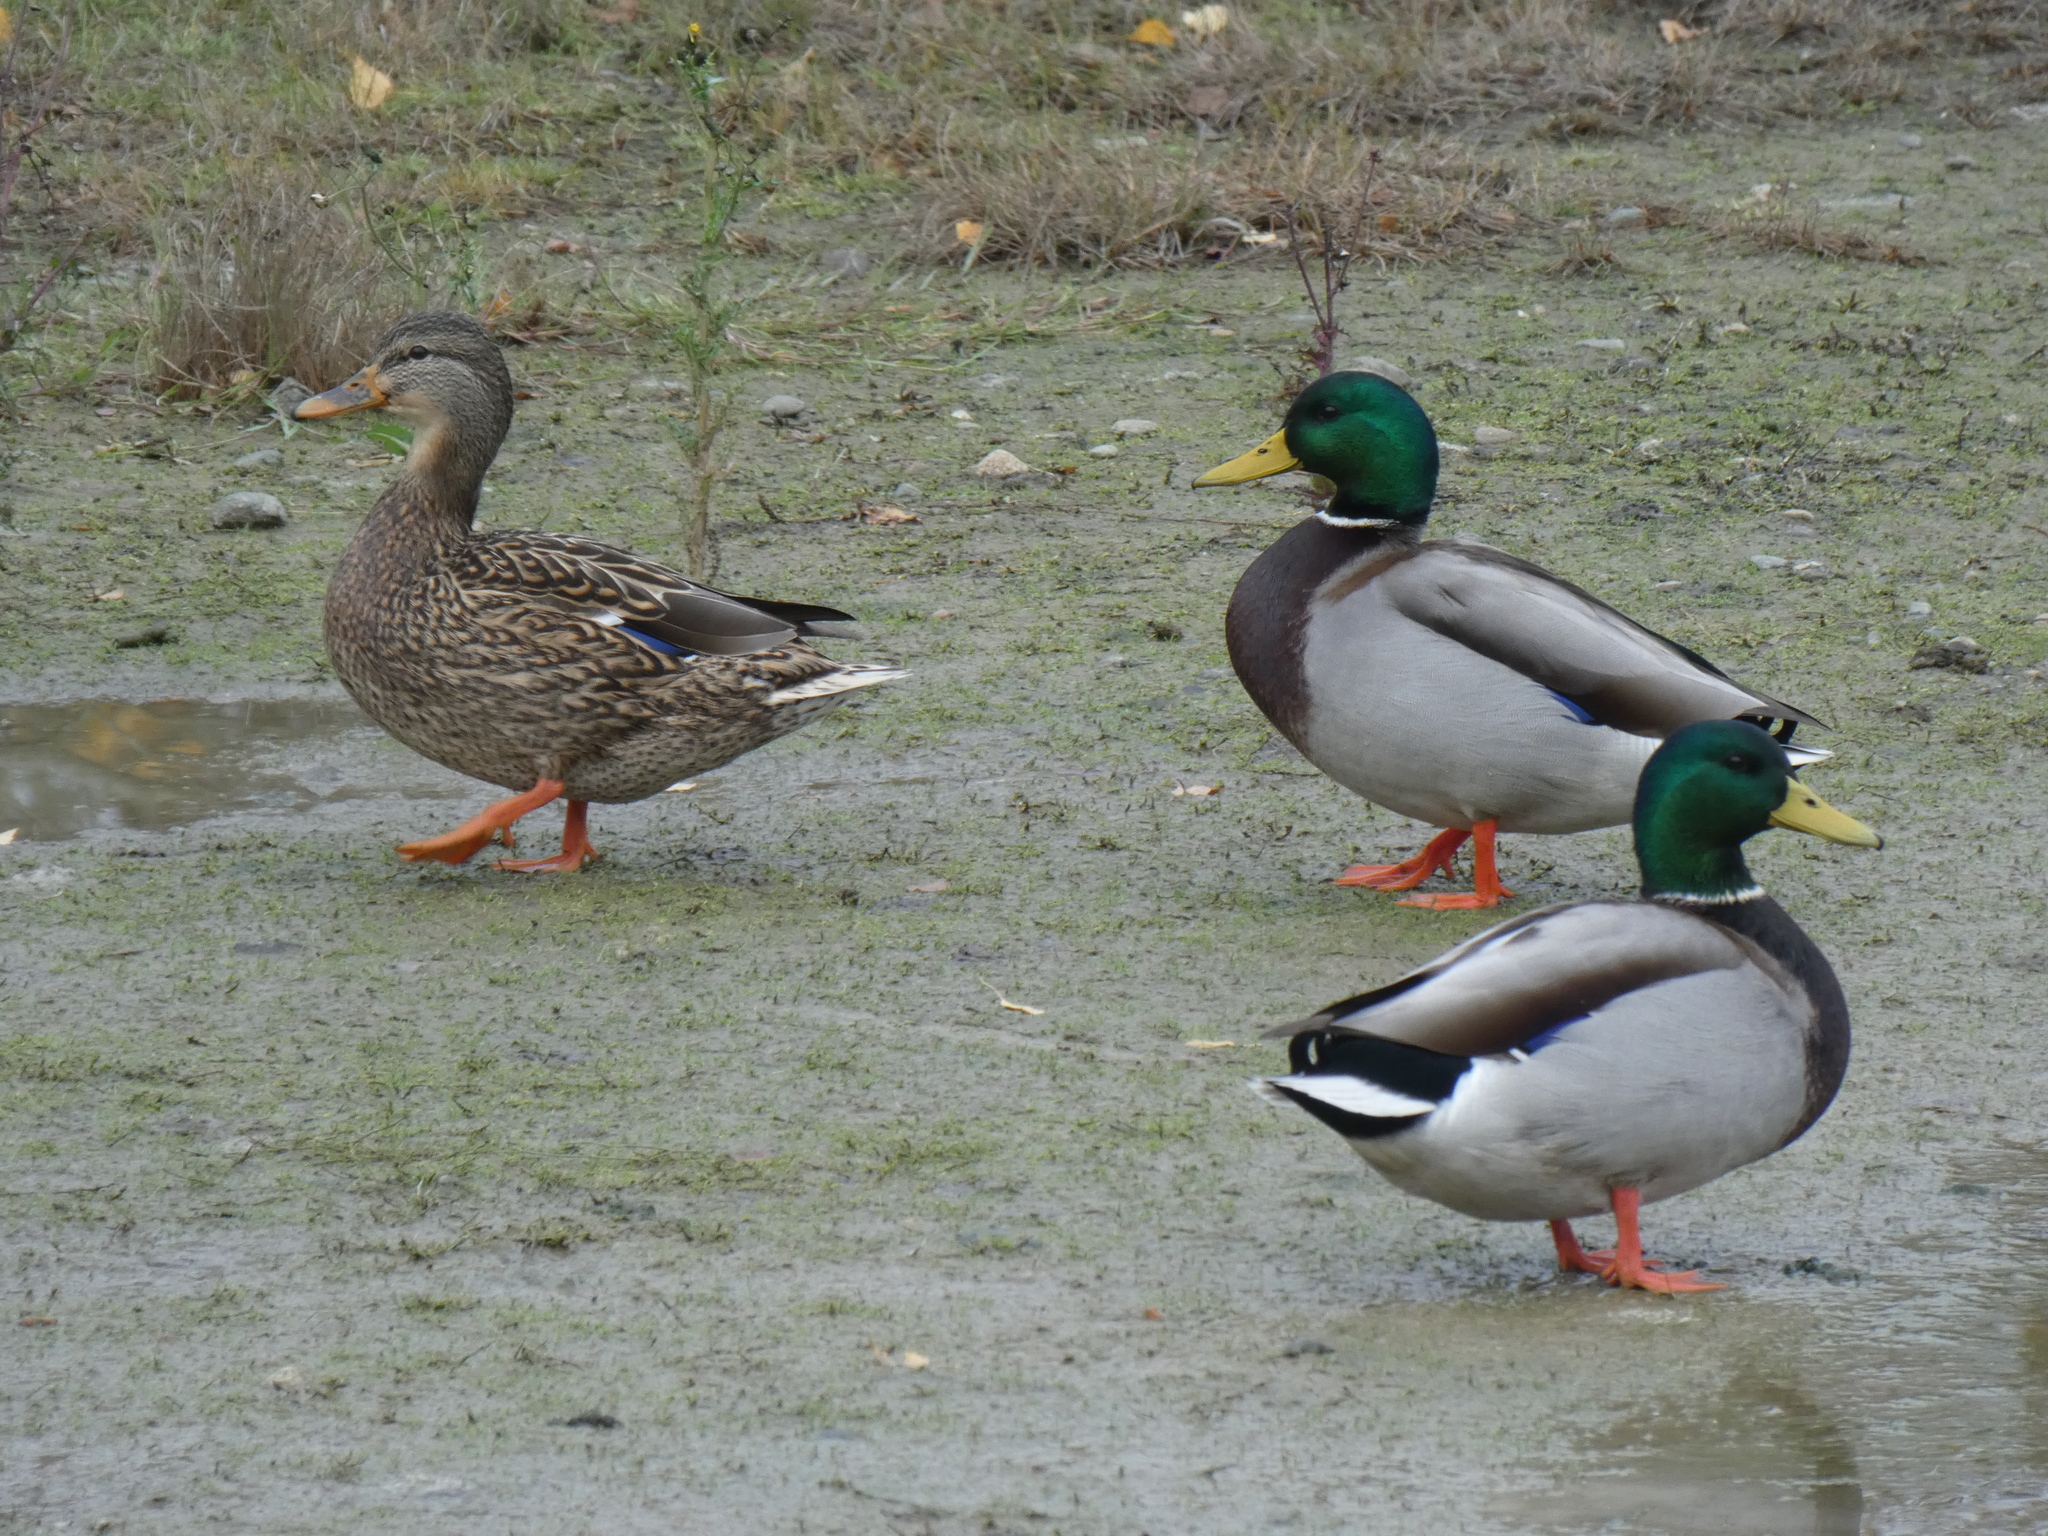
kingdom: Animalia
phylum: Chordata
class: Aves
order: Anseriformes
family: Anatidae
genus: Anas
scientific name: Anas platyrhynchos
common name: Mallard
